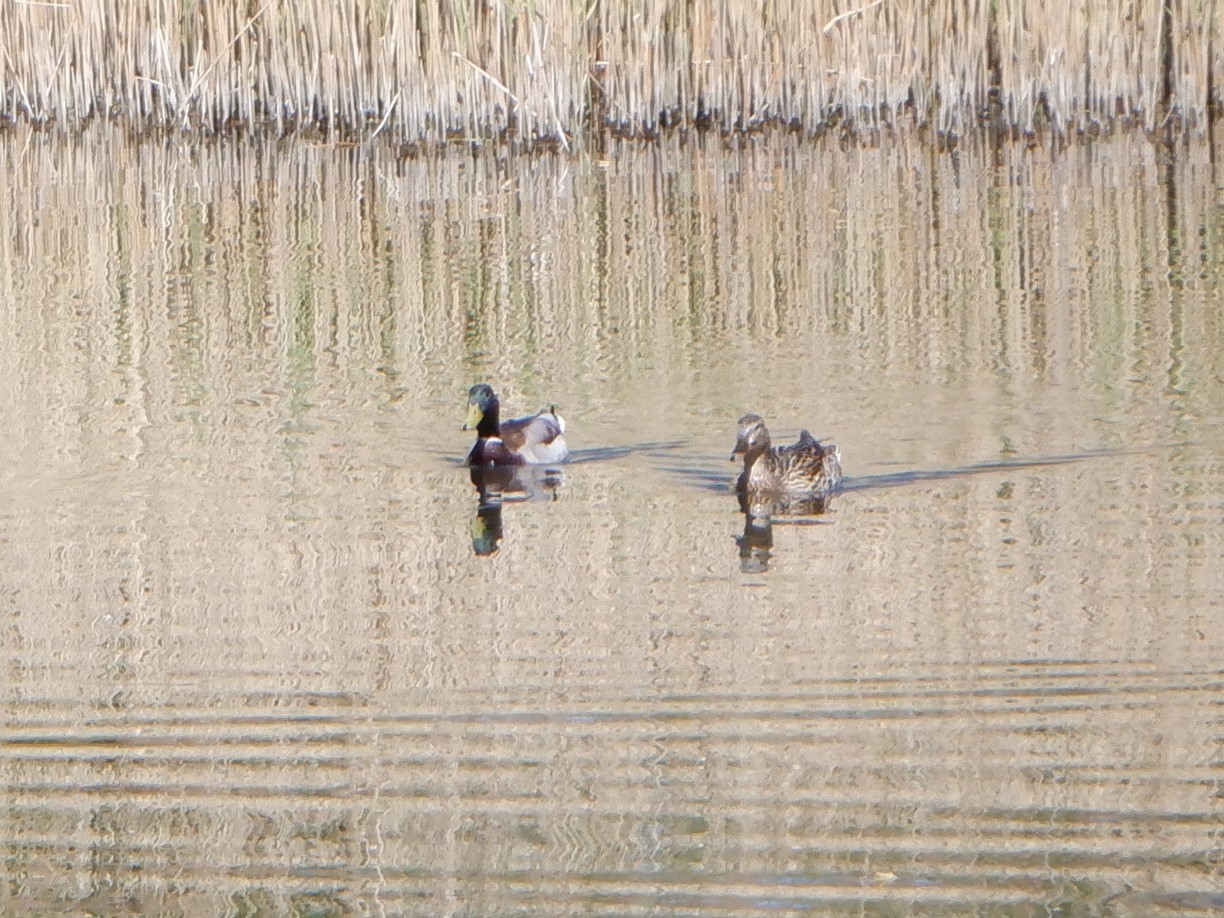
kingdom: Animalia
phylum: Chordata
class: Aves
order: Anseriformes
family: Anatidae
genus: Anas
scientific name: Anas platyrhynchos
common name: Mallard
